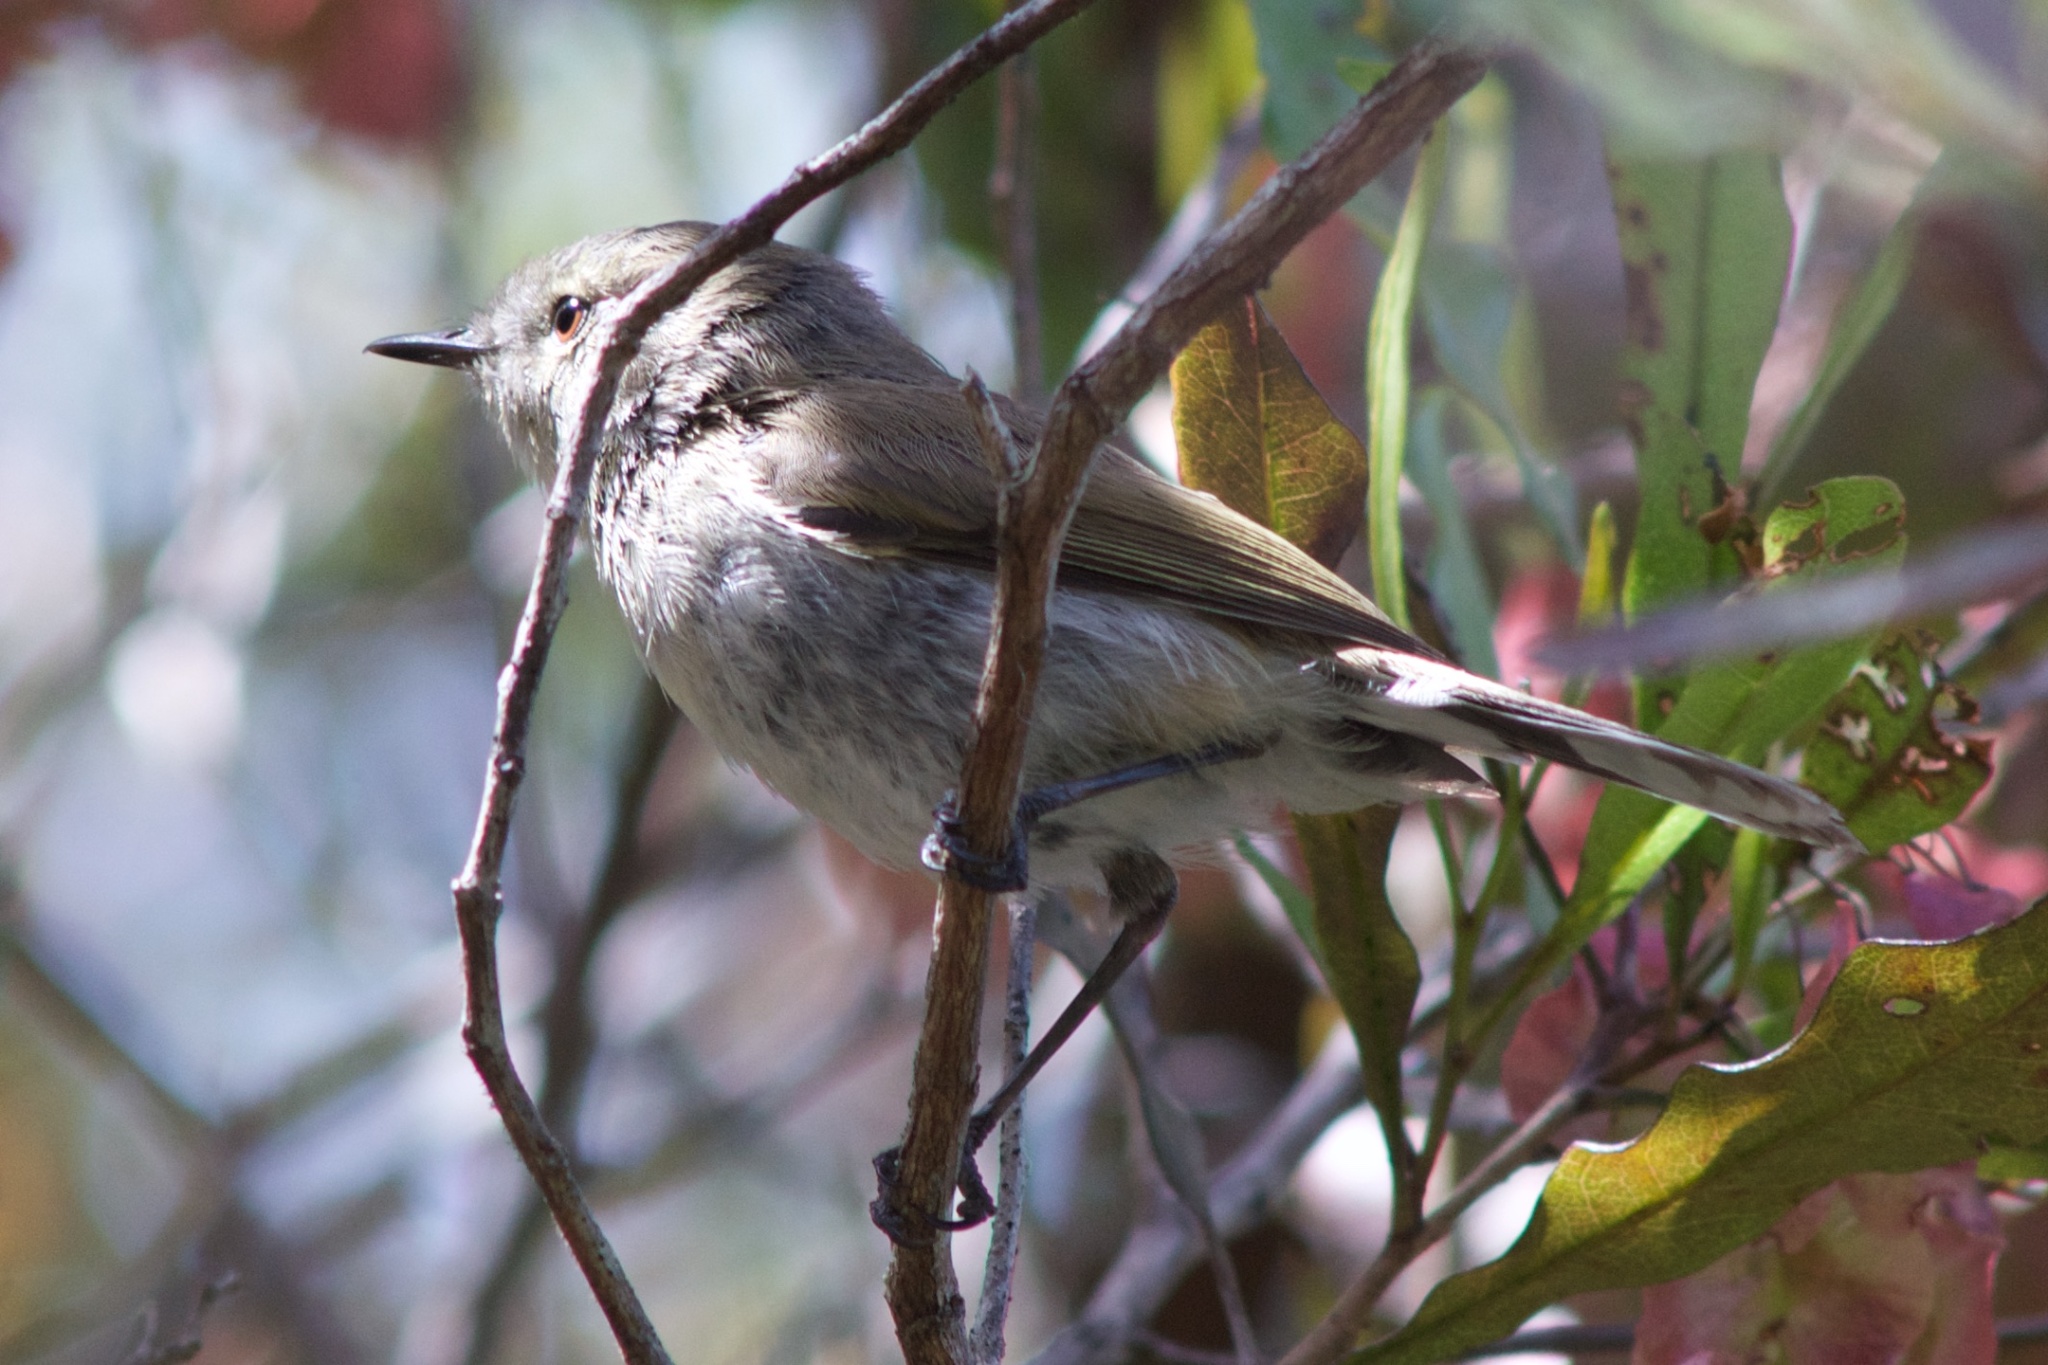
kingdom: Animalia
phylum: Chordata
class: Aves
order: Passeriformes
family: Acanthizidae
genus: Gerygone
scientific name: Gerygone igata
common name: Grey gerygone
